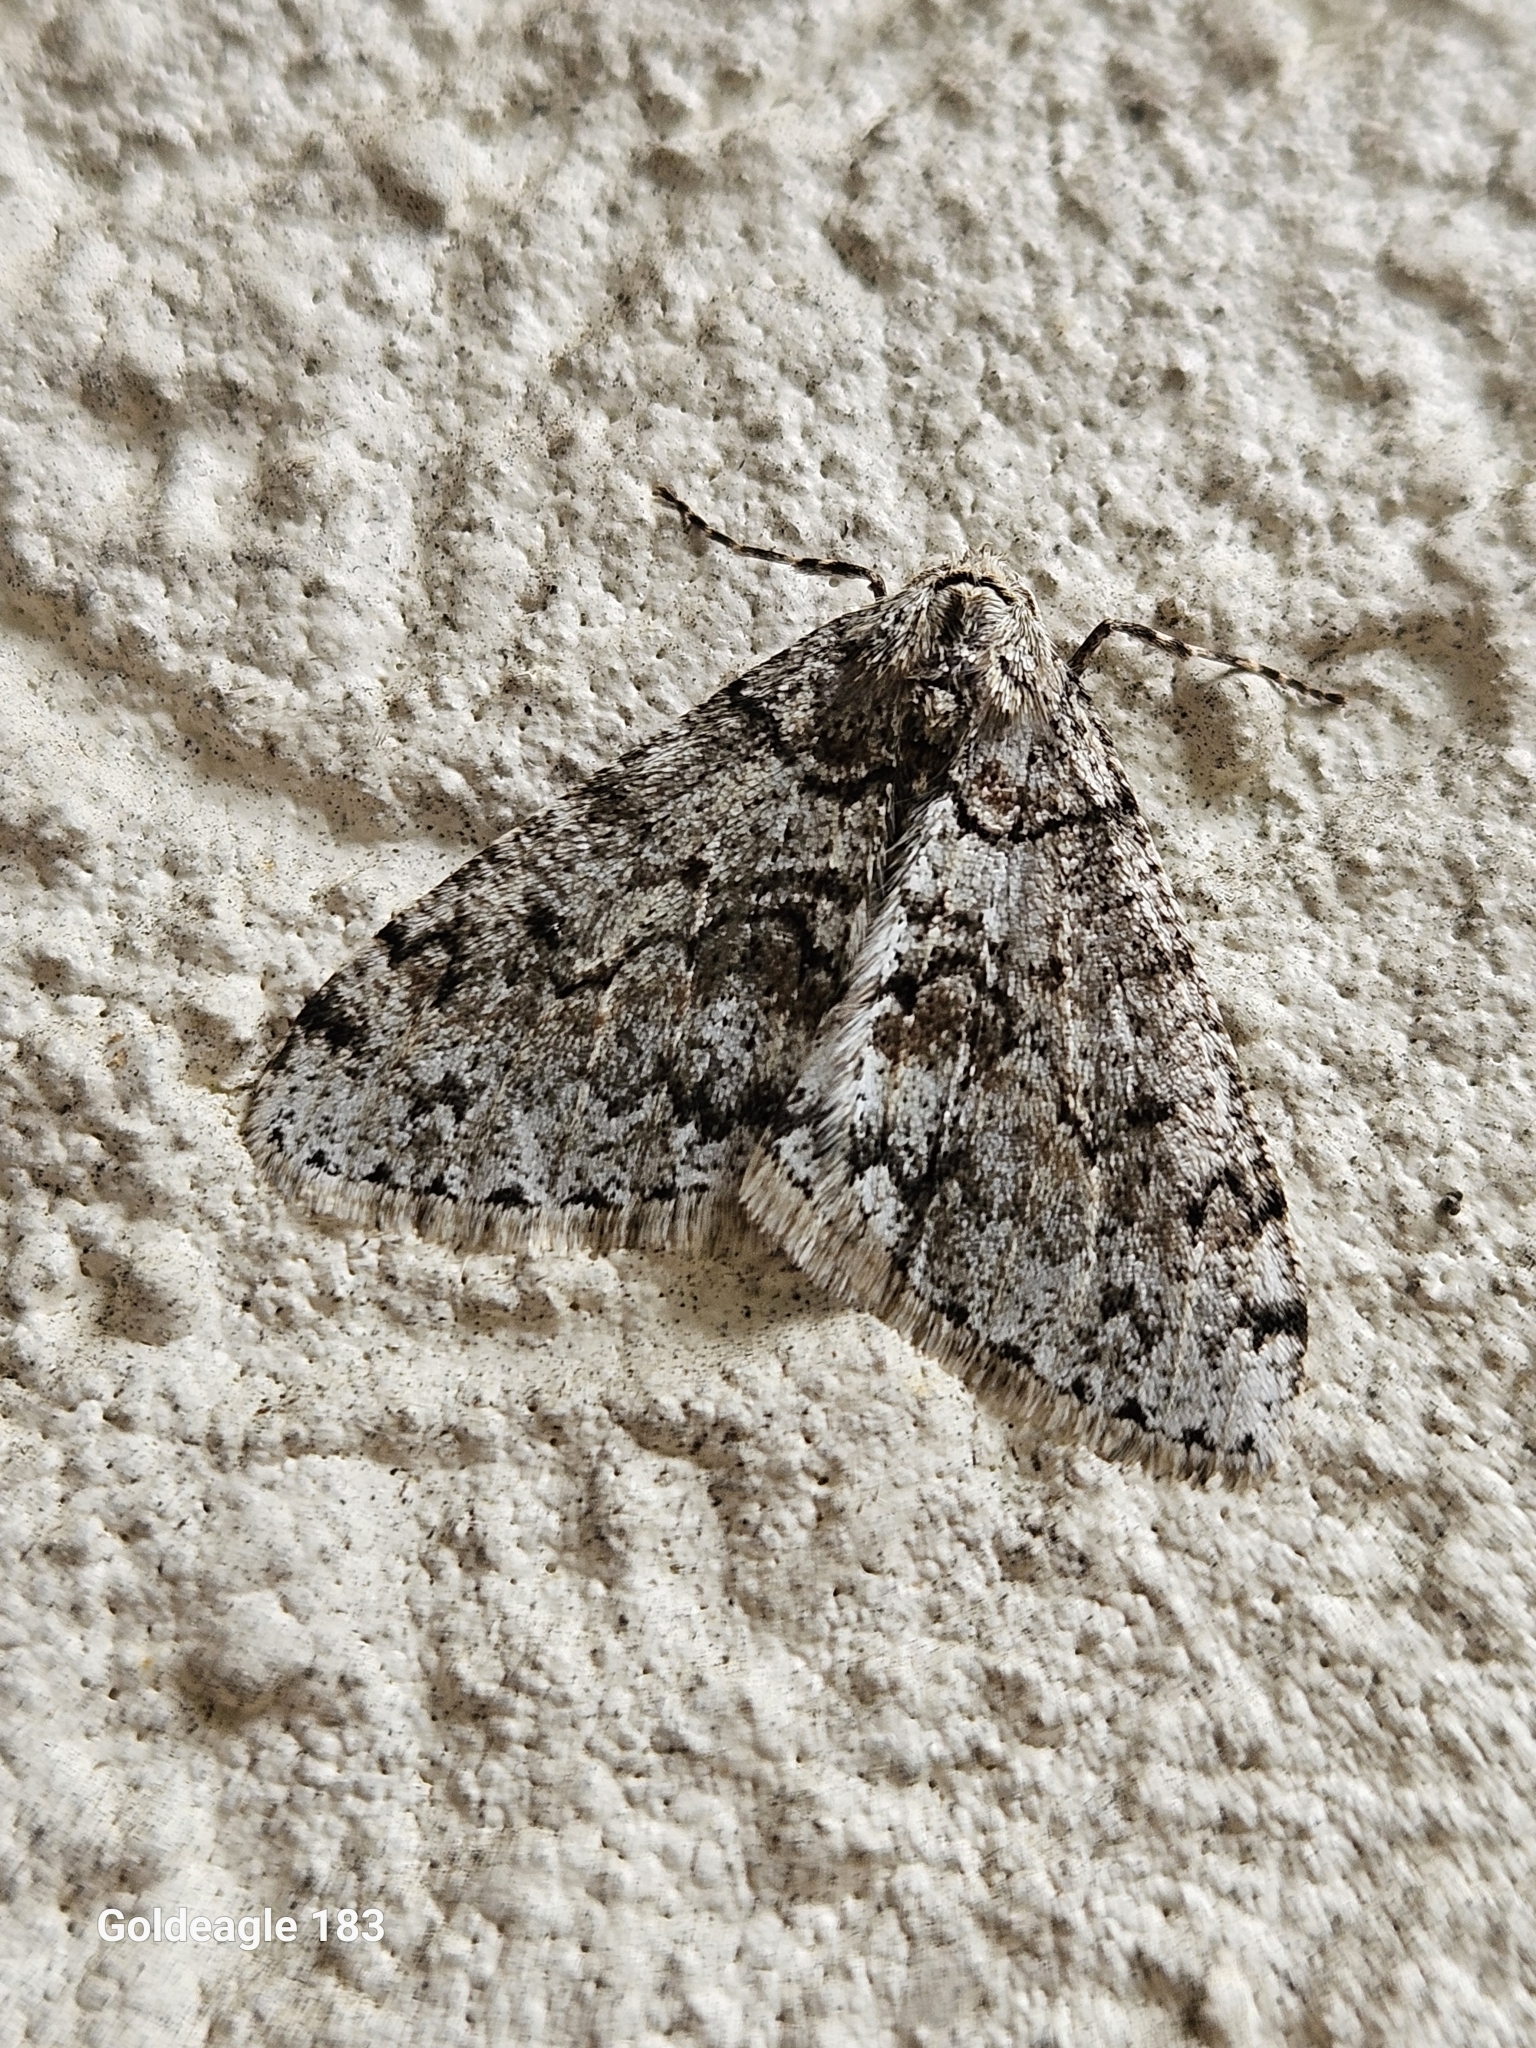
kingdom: Animalia
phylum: Arthropoda
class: Insecta
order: Lepidoptera
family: Geometridae
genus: Phigalia
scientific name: Phigalia denticulata
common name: Toothed phigalia
